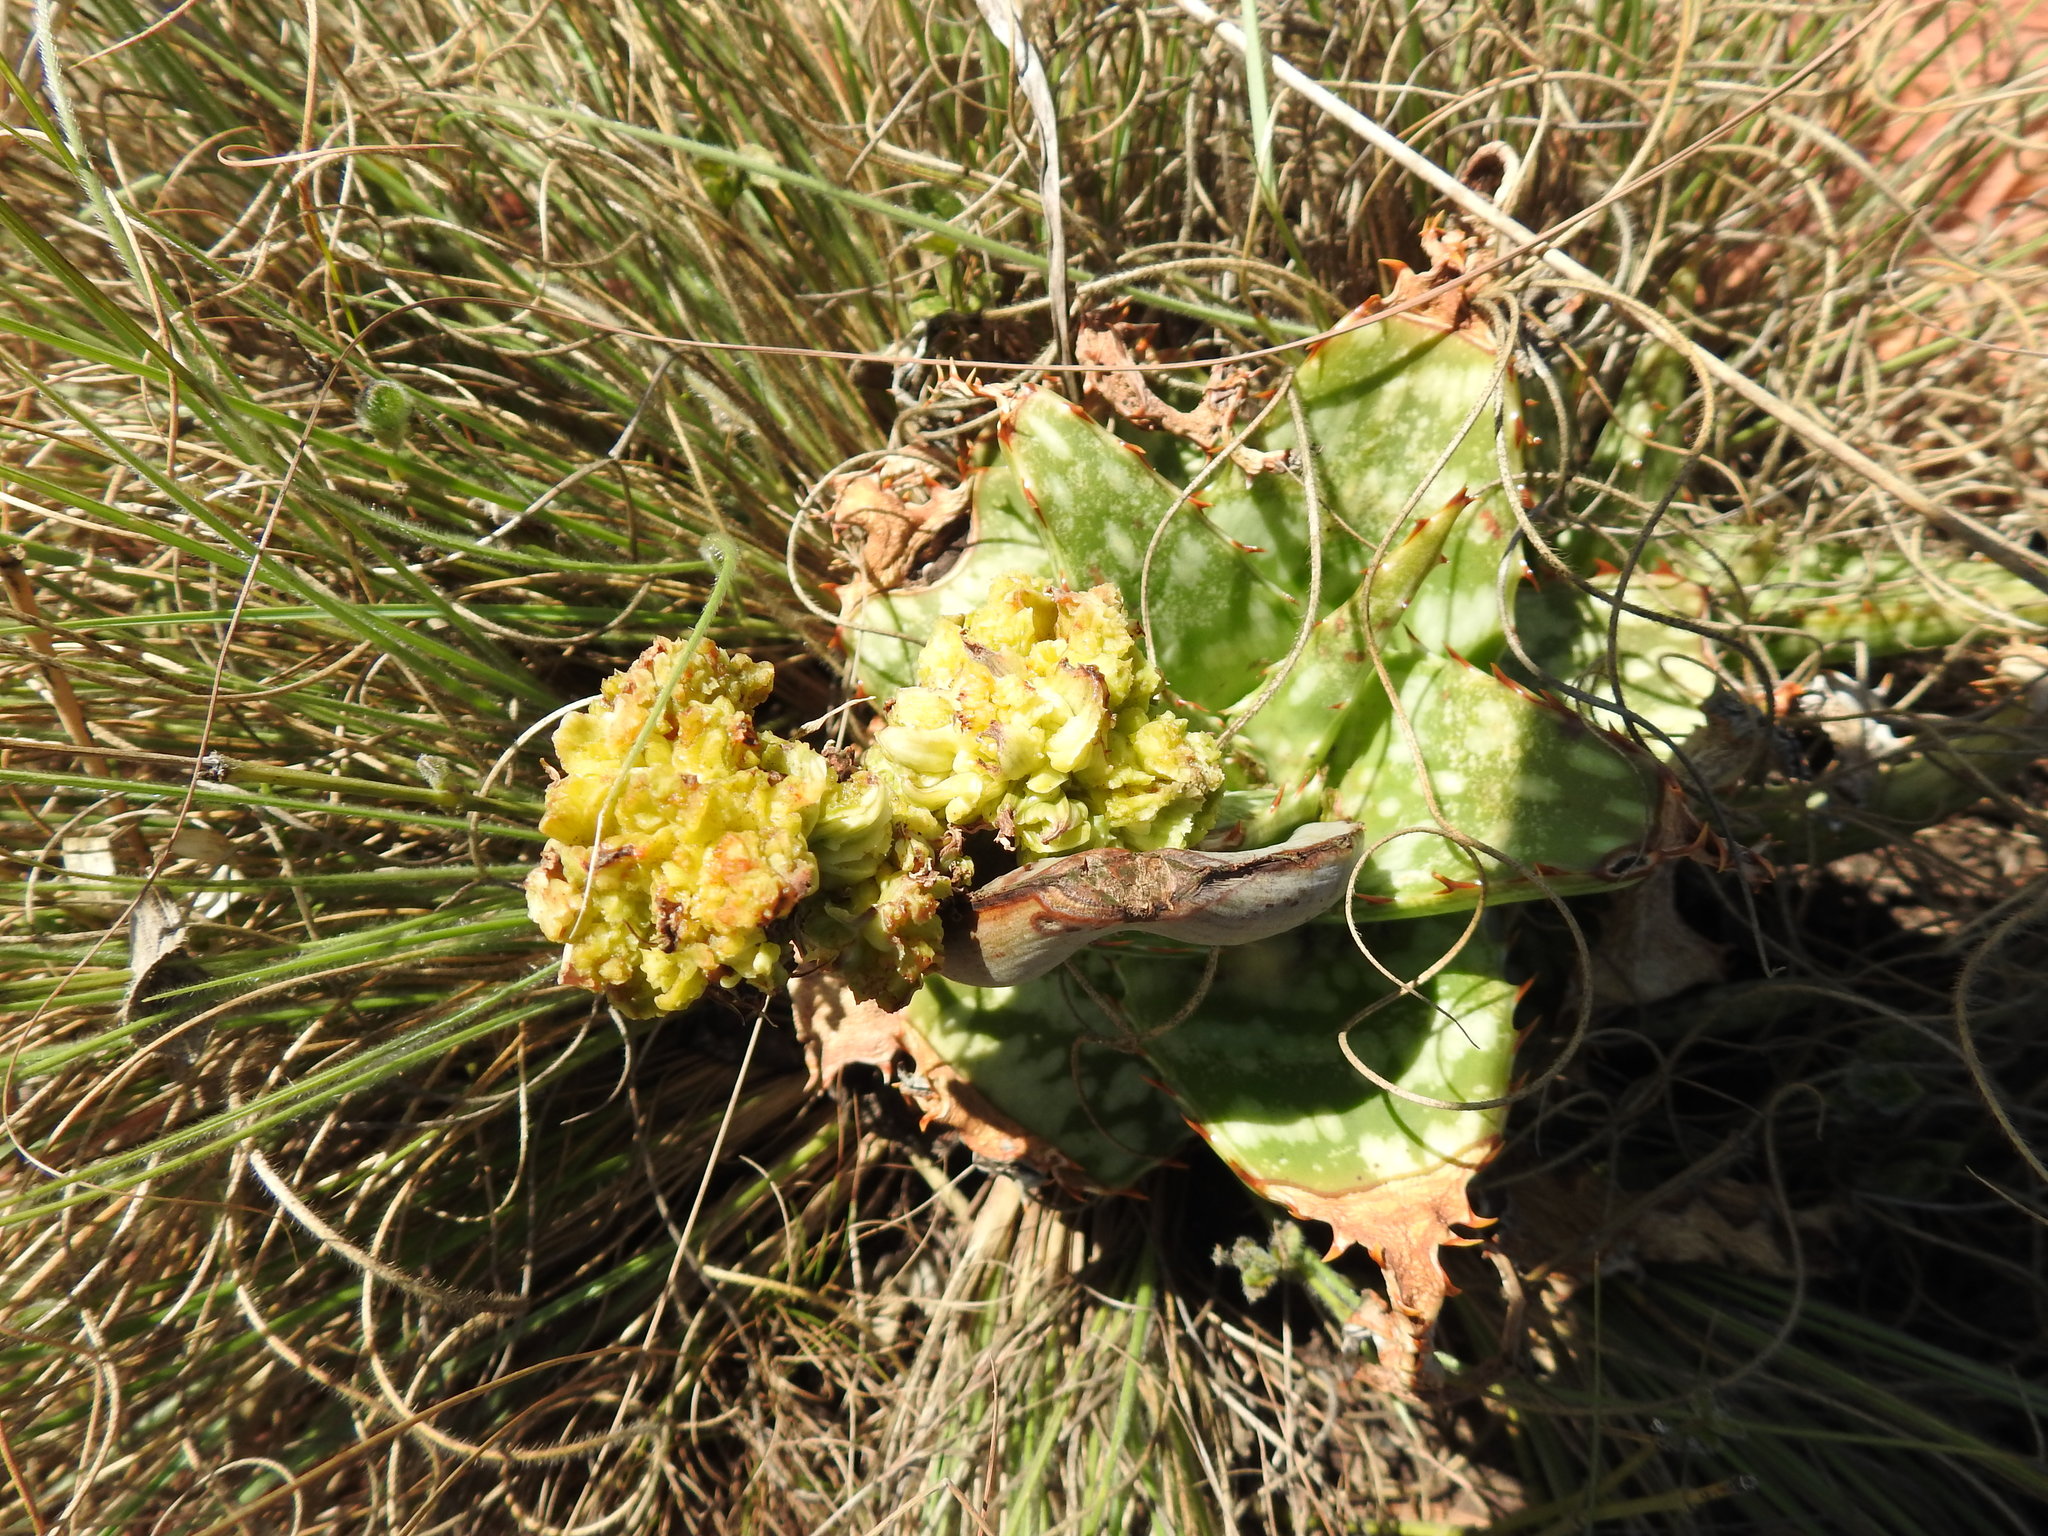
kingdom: Animalia
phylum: Arthropoda
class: Arachnida
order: Trombidiformes
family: Eriophyidae
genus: Aceria
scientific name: Aceria aloinis
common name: Mite
